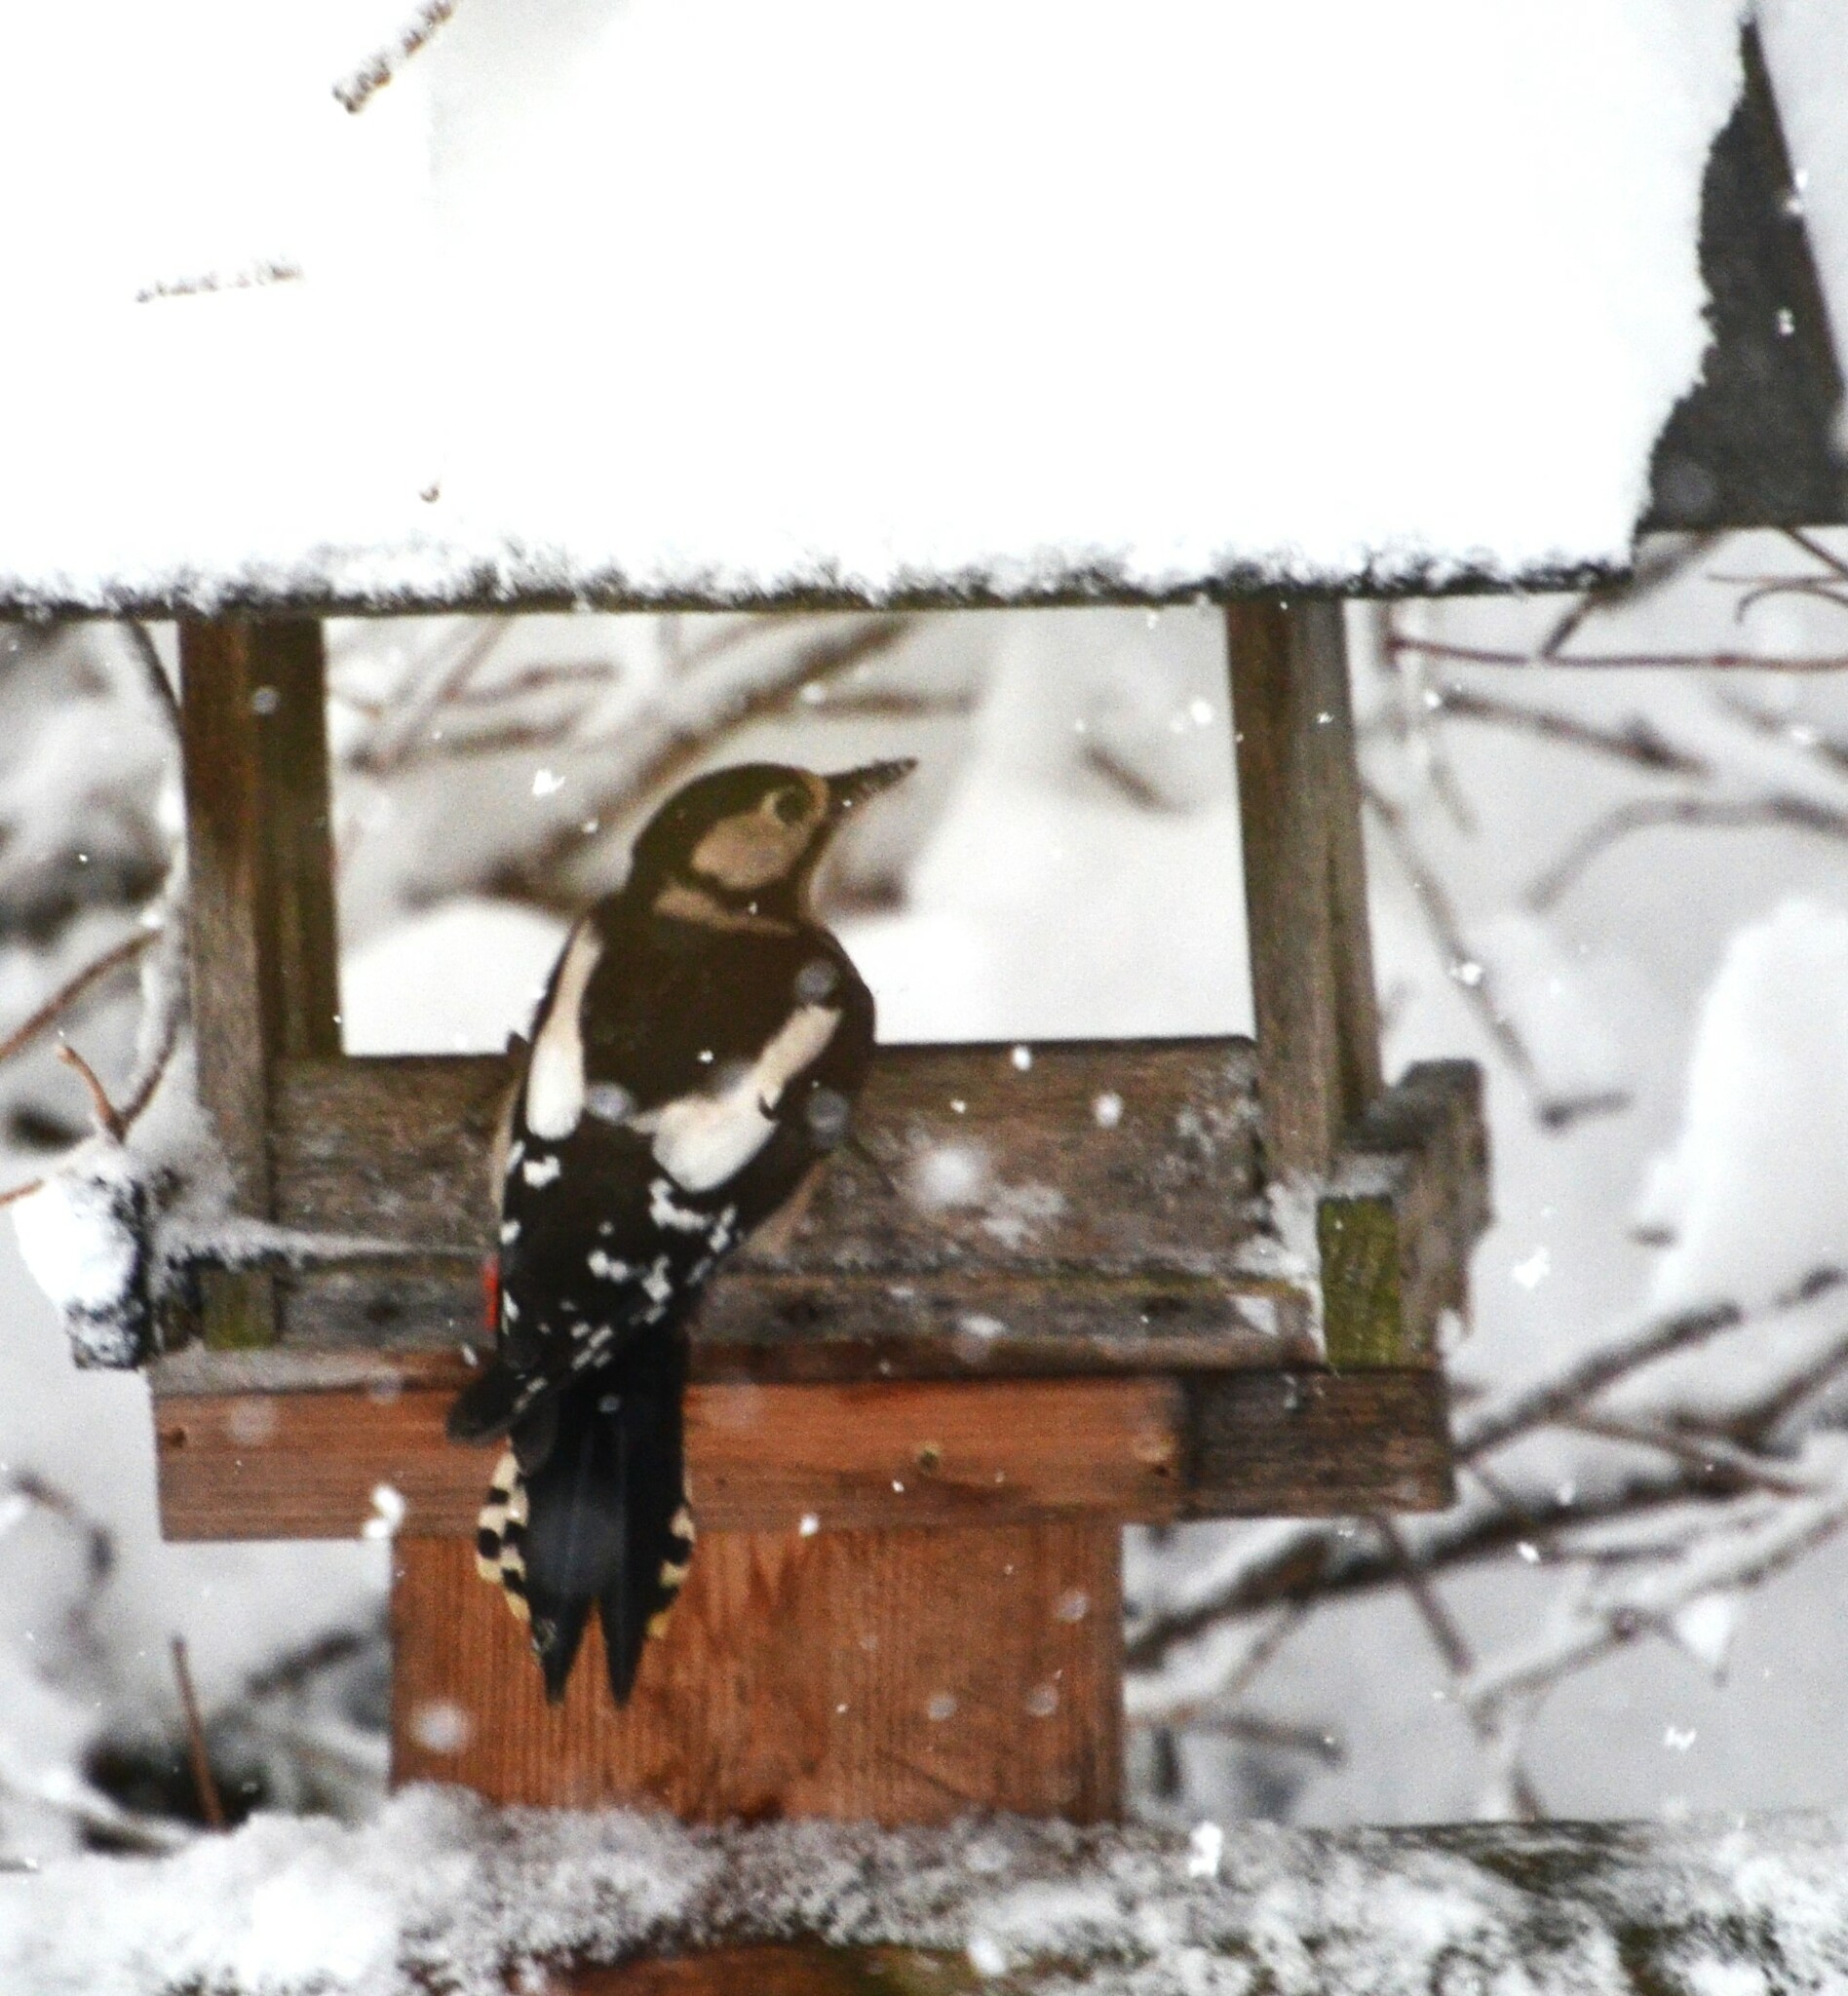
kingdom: Animalia
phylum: Chordata
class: Aves
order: Piciformes
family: Picidae
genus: Dendrocopos
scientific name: Dendrocopos major
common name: Great spotted woodpecker
